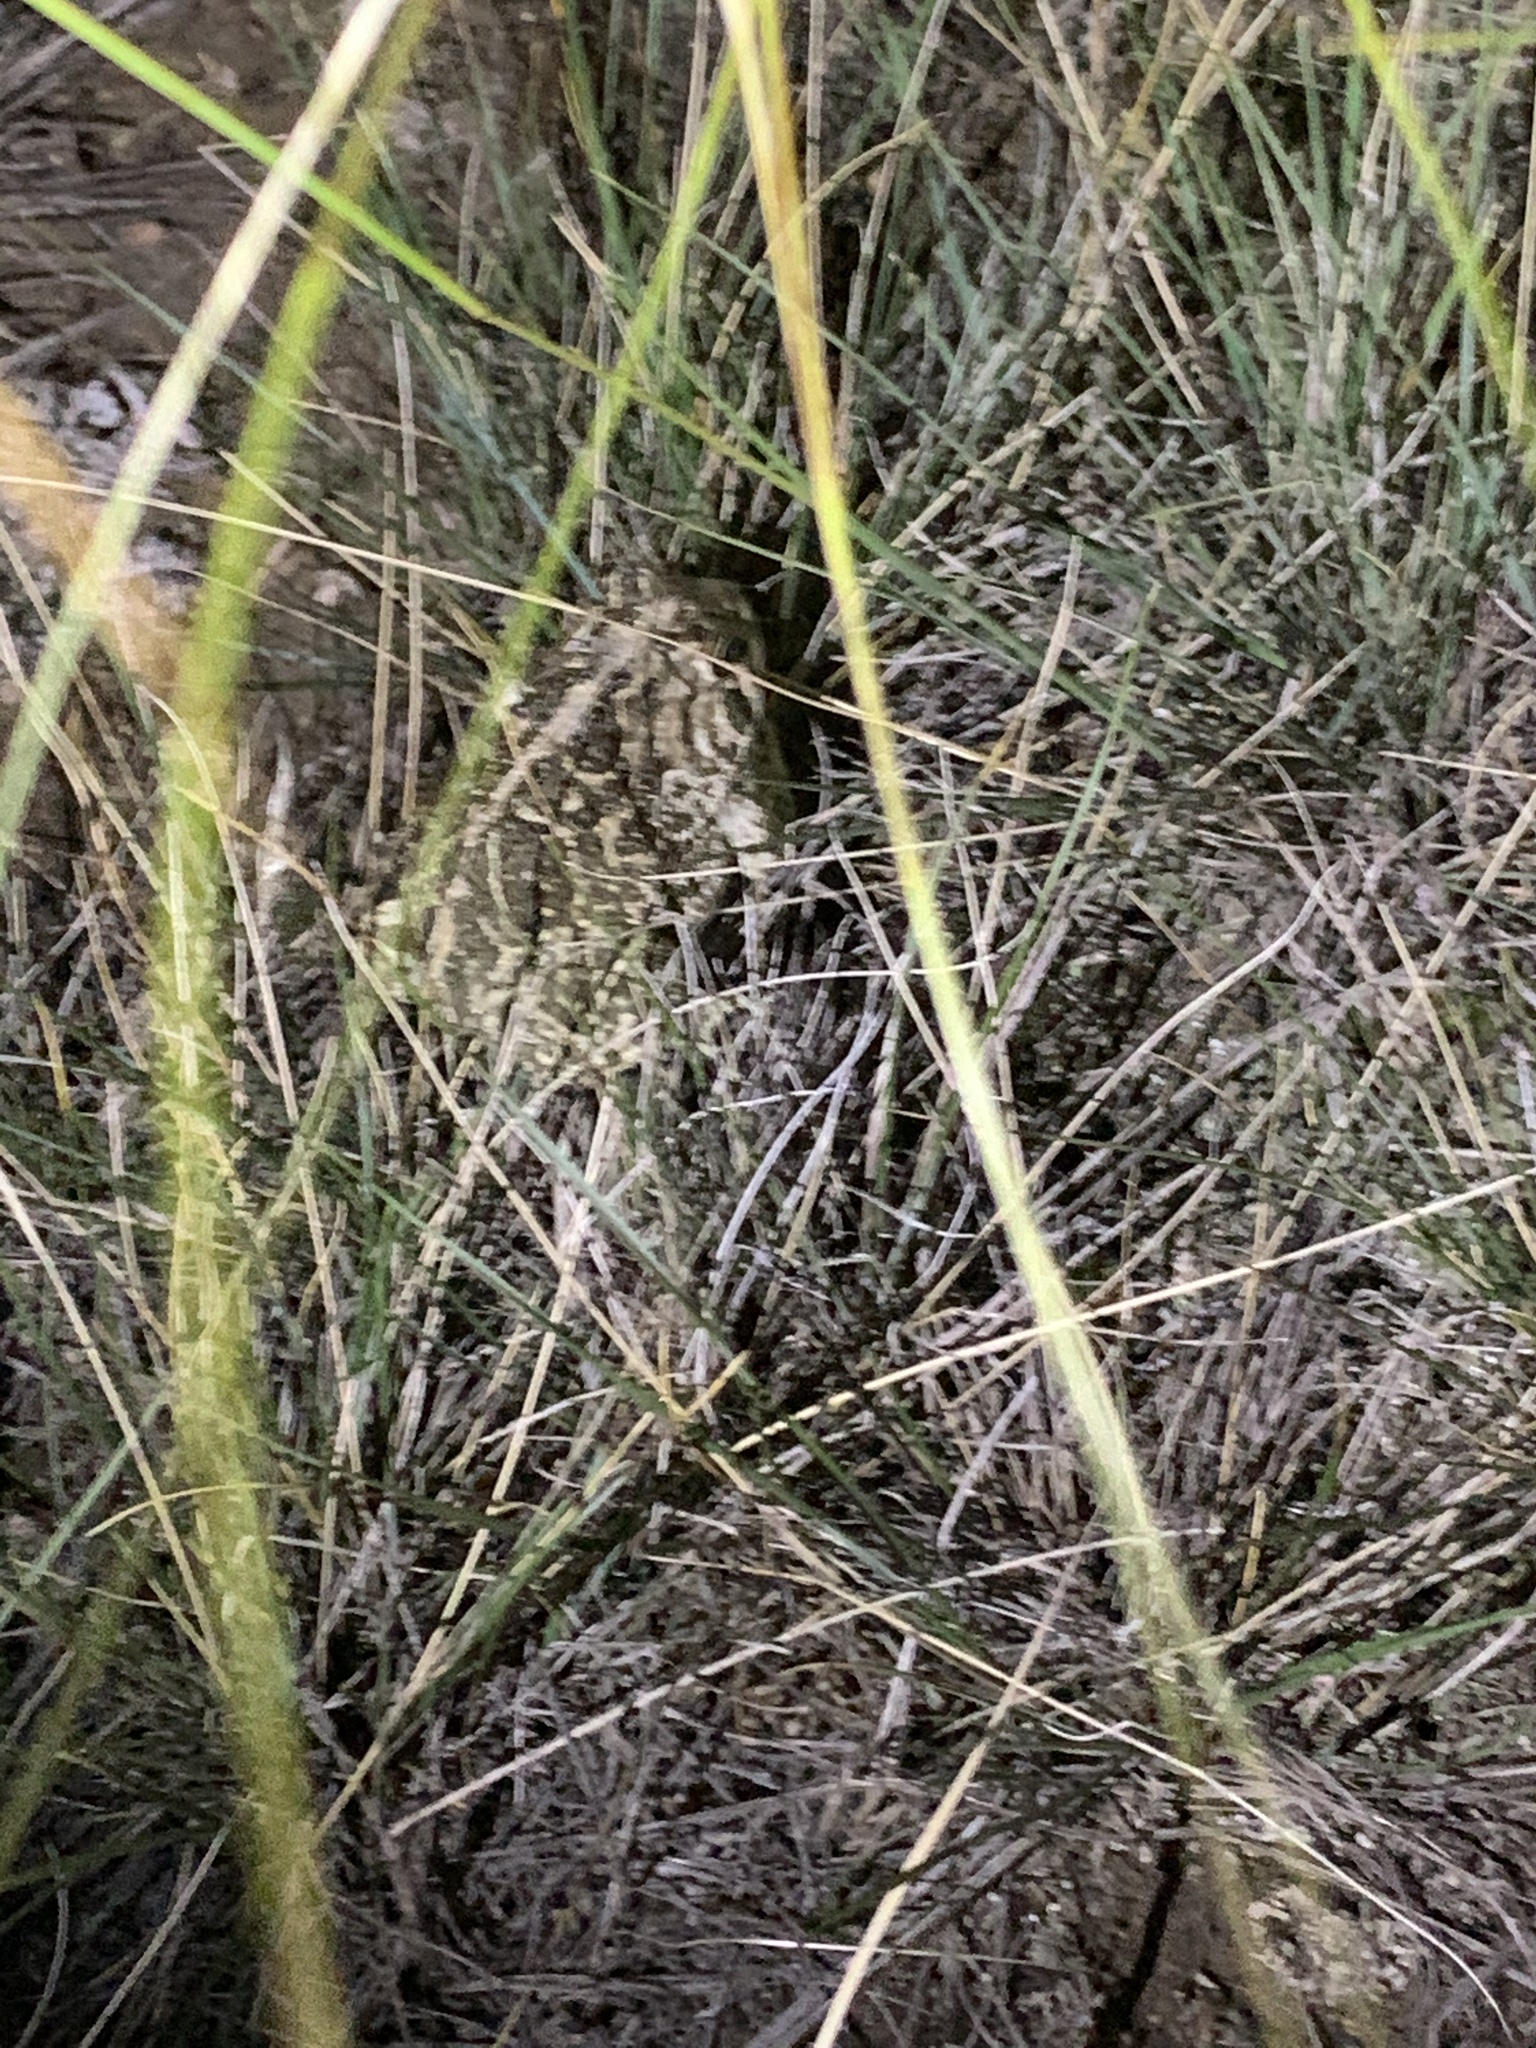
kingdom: Animalia
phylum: Chordata
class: Amphibia
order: Anura
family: Bufonidae
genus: Anaxyrus
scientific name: Anaxyrus cognatus
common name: Great plains toad
